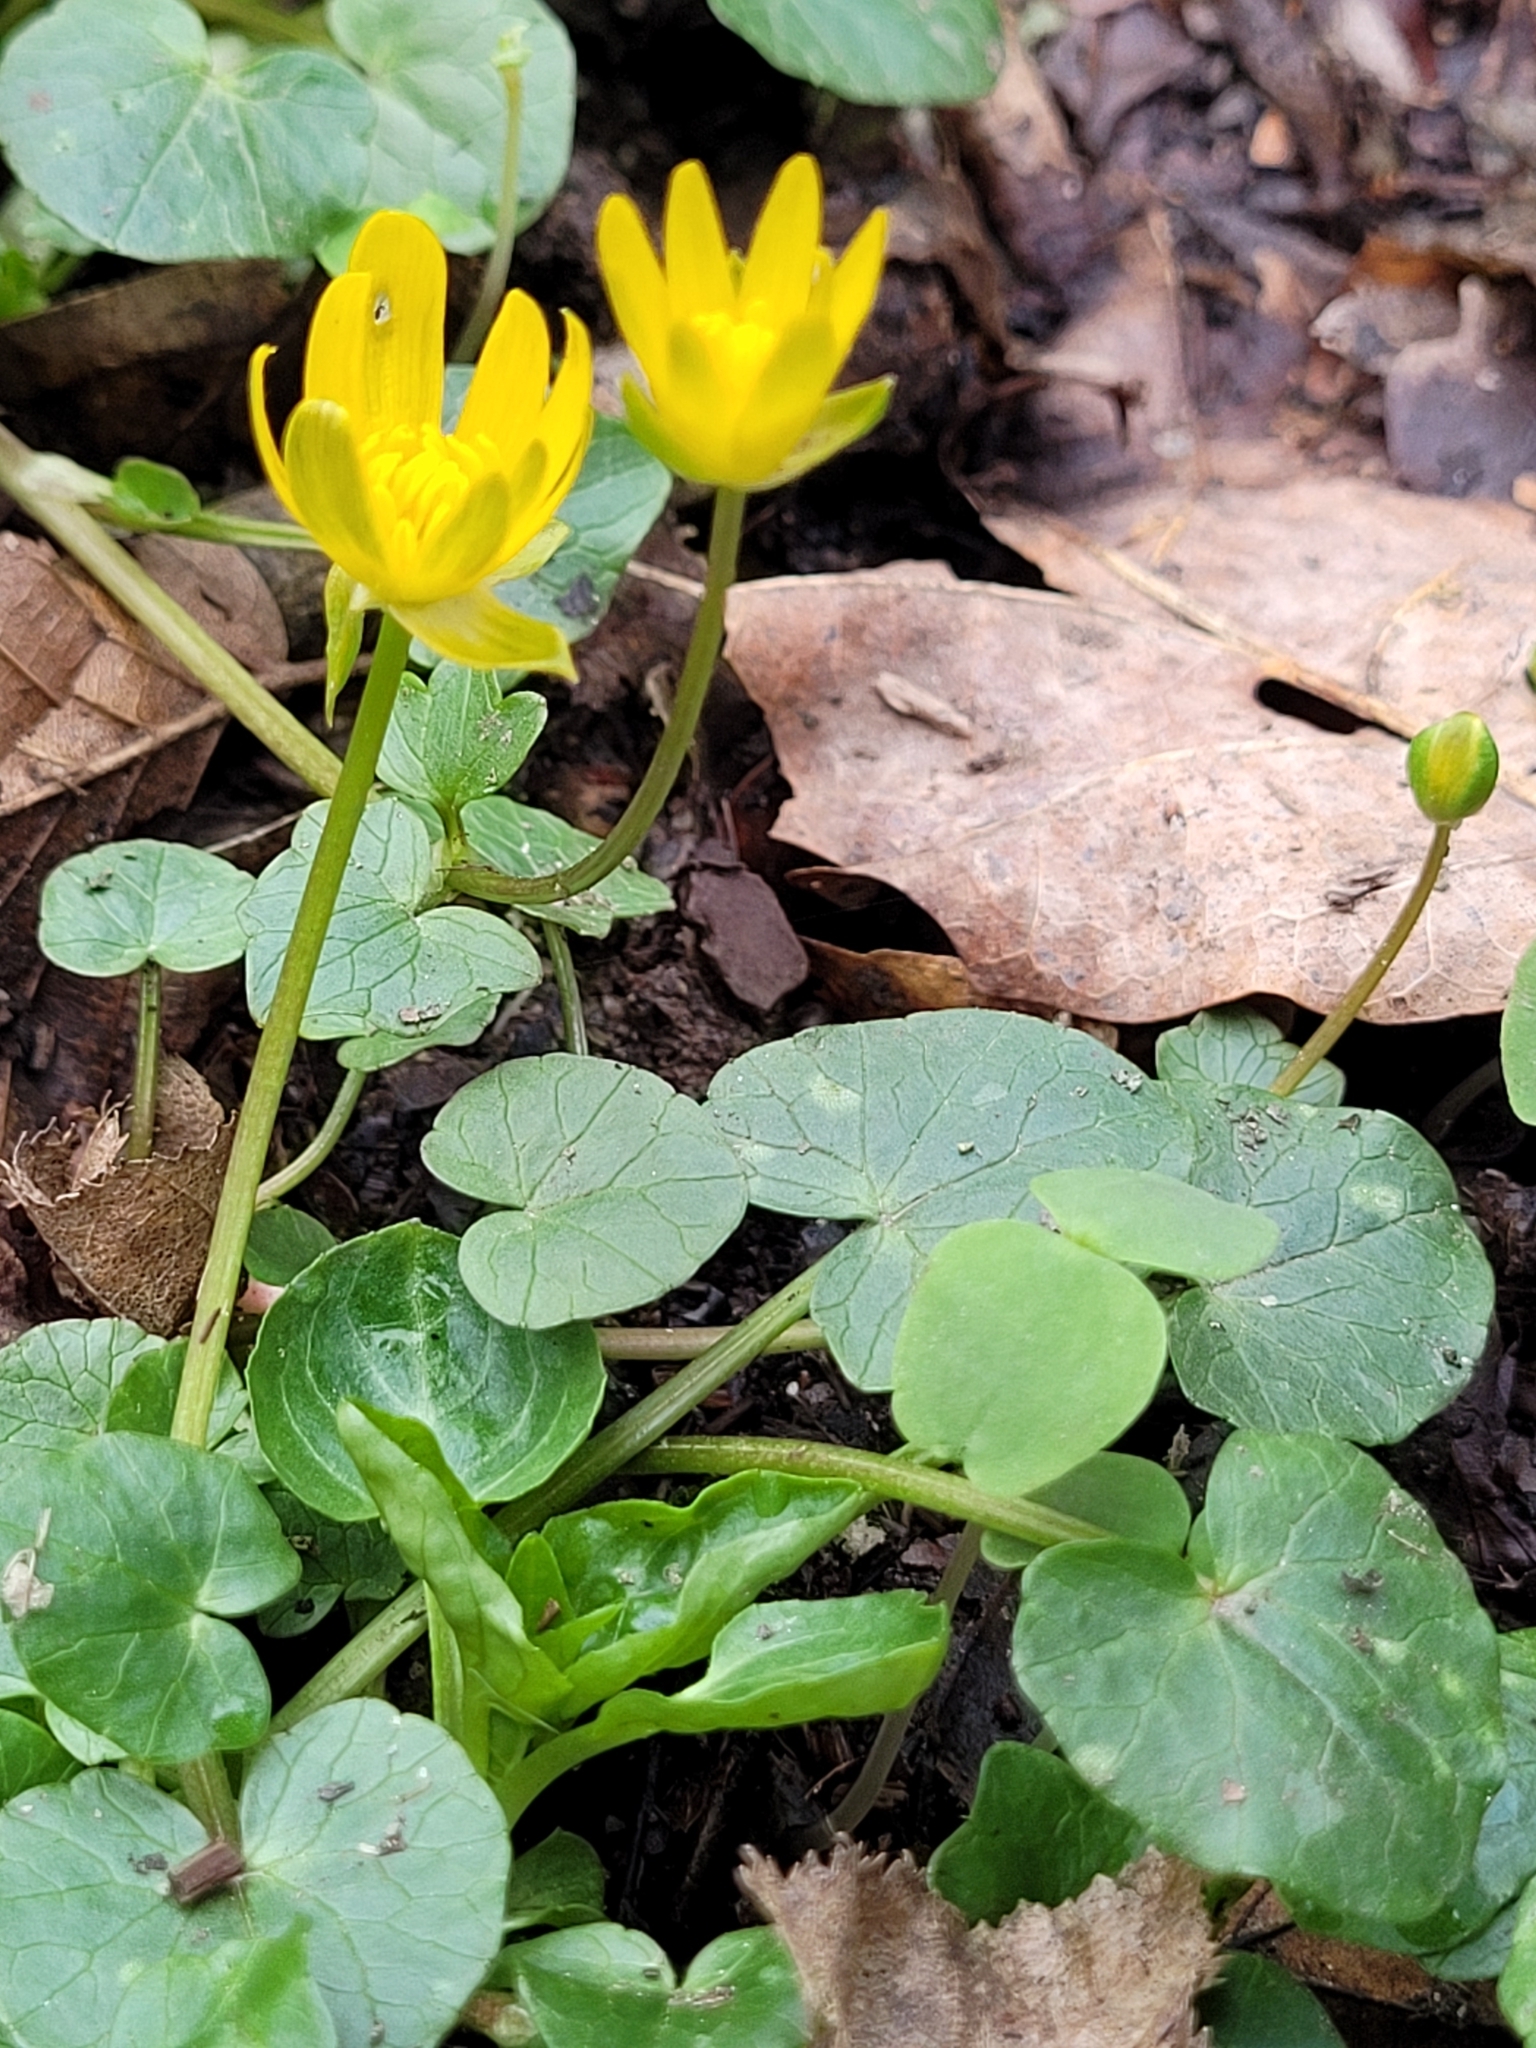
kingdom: Plantae
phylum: Tracheophyta
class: Magnoliopsida
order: Ranunculales
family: Ranunculaceae
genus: Ficaria
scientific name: Ficaria verna
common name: Lesser celandine
